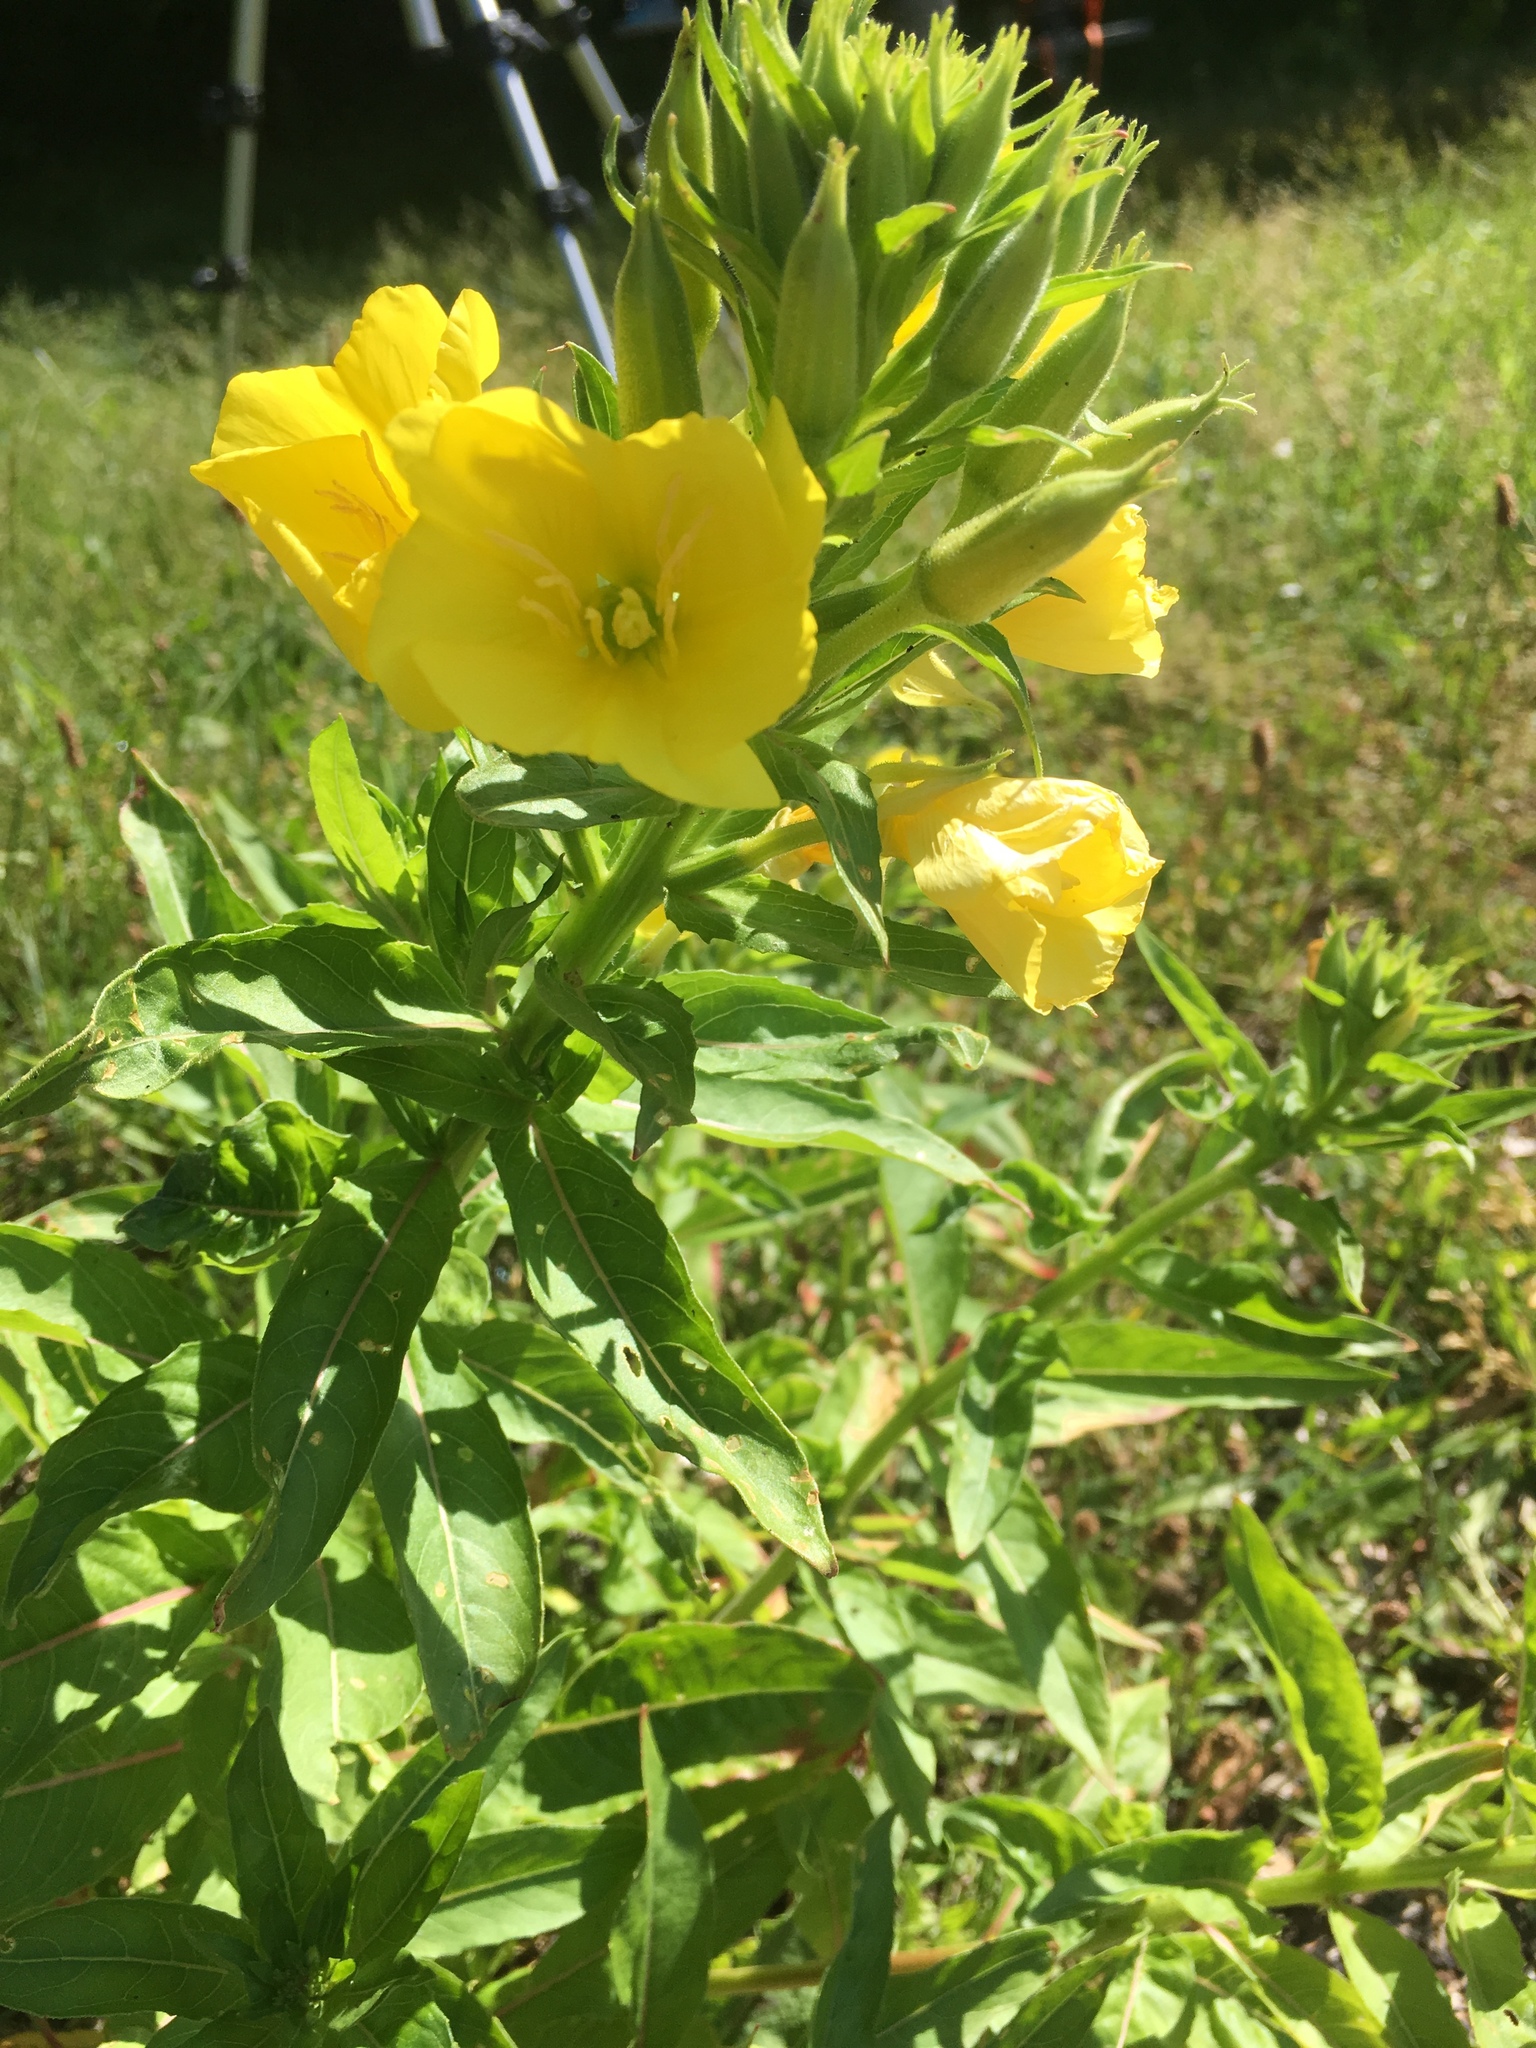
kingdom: Plantae
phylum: Tracheophyta
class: Magnoliopsida
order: Myrtales
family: Onagraceae
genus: Oenothera
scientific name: Oenothera biennis
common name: Common evening-primrose
